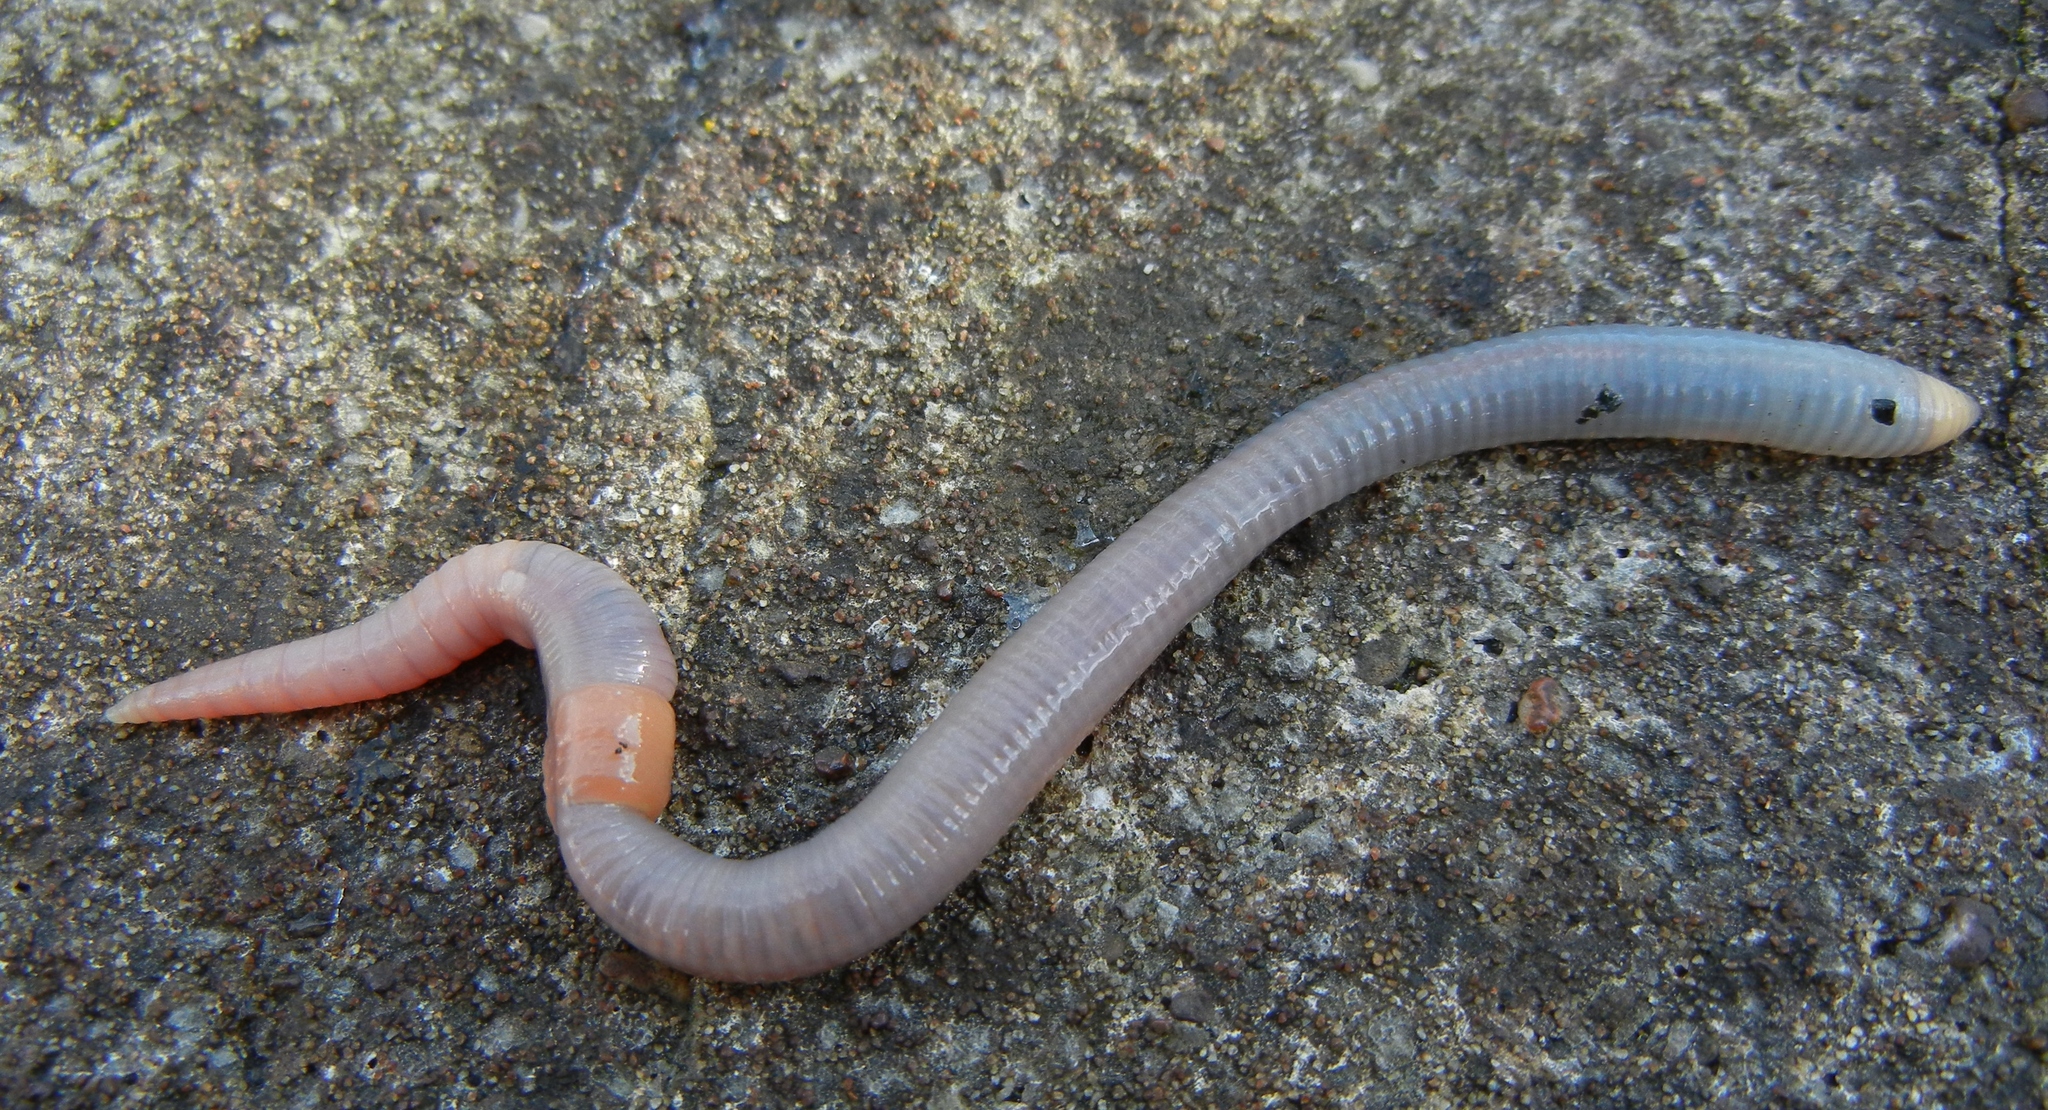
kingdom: Animalia
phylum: Annelida
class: Clitellata
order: Crassiclitellata
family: Lumbricidae
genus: Octolasion
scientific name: Octolasion cyaneum
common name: Woodland blue worm
